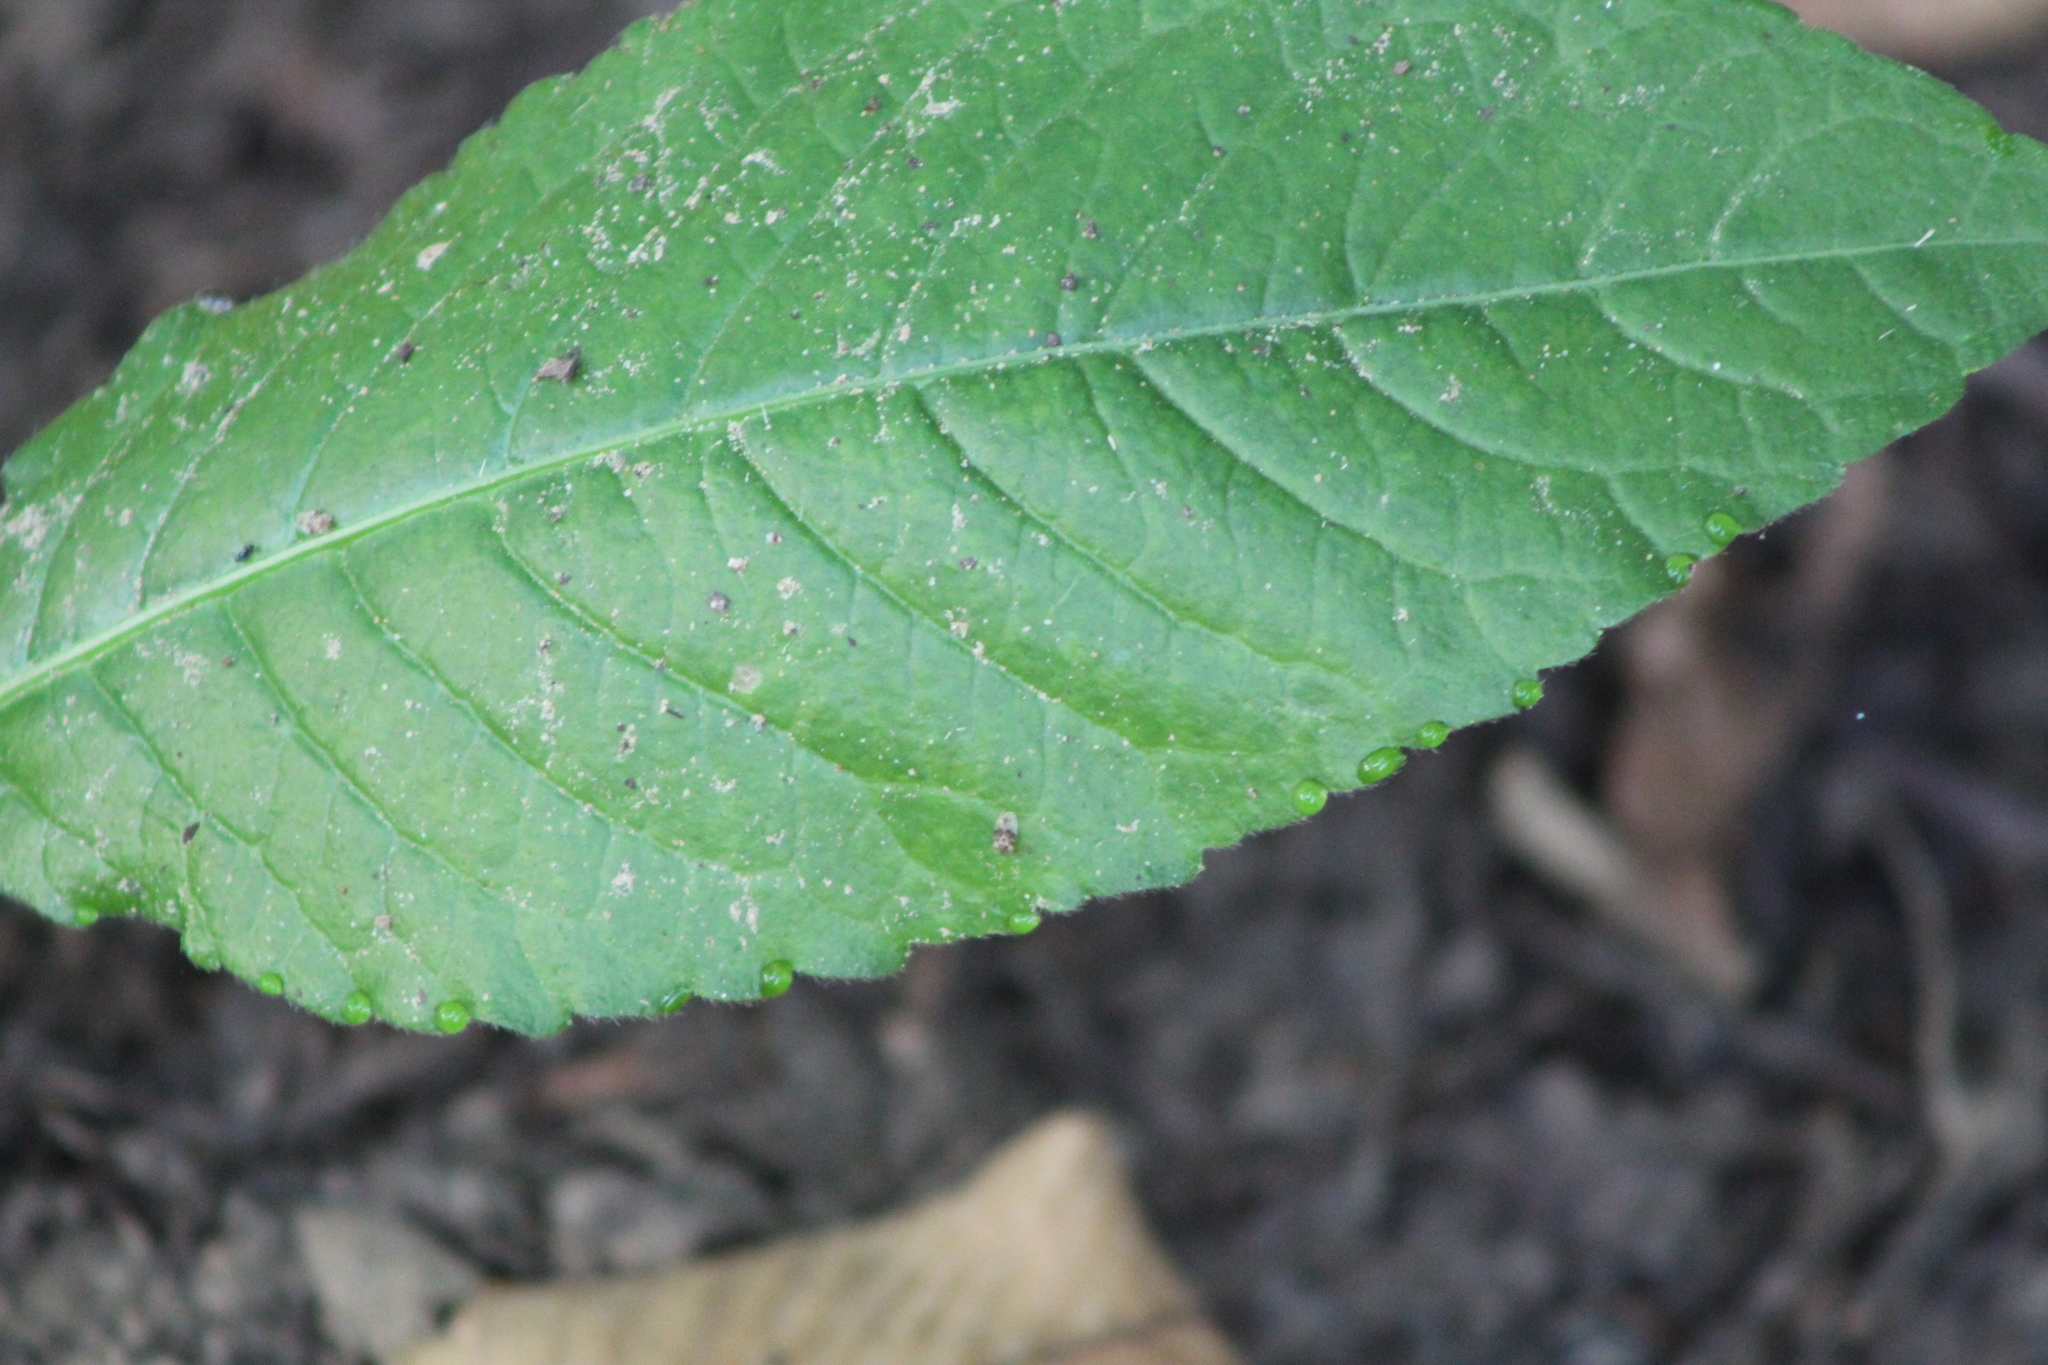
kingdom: Plantae
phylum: Tracheophyta
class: Magnoliopsida
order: Asterales
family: Asteraceae
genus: Elephantopus
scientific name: Elephantopus carolinianus
